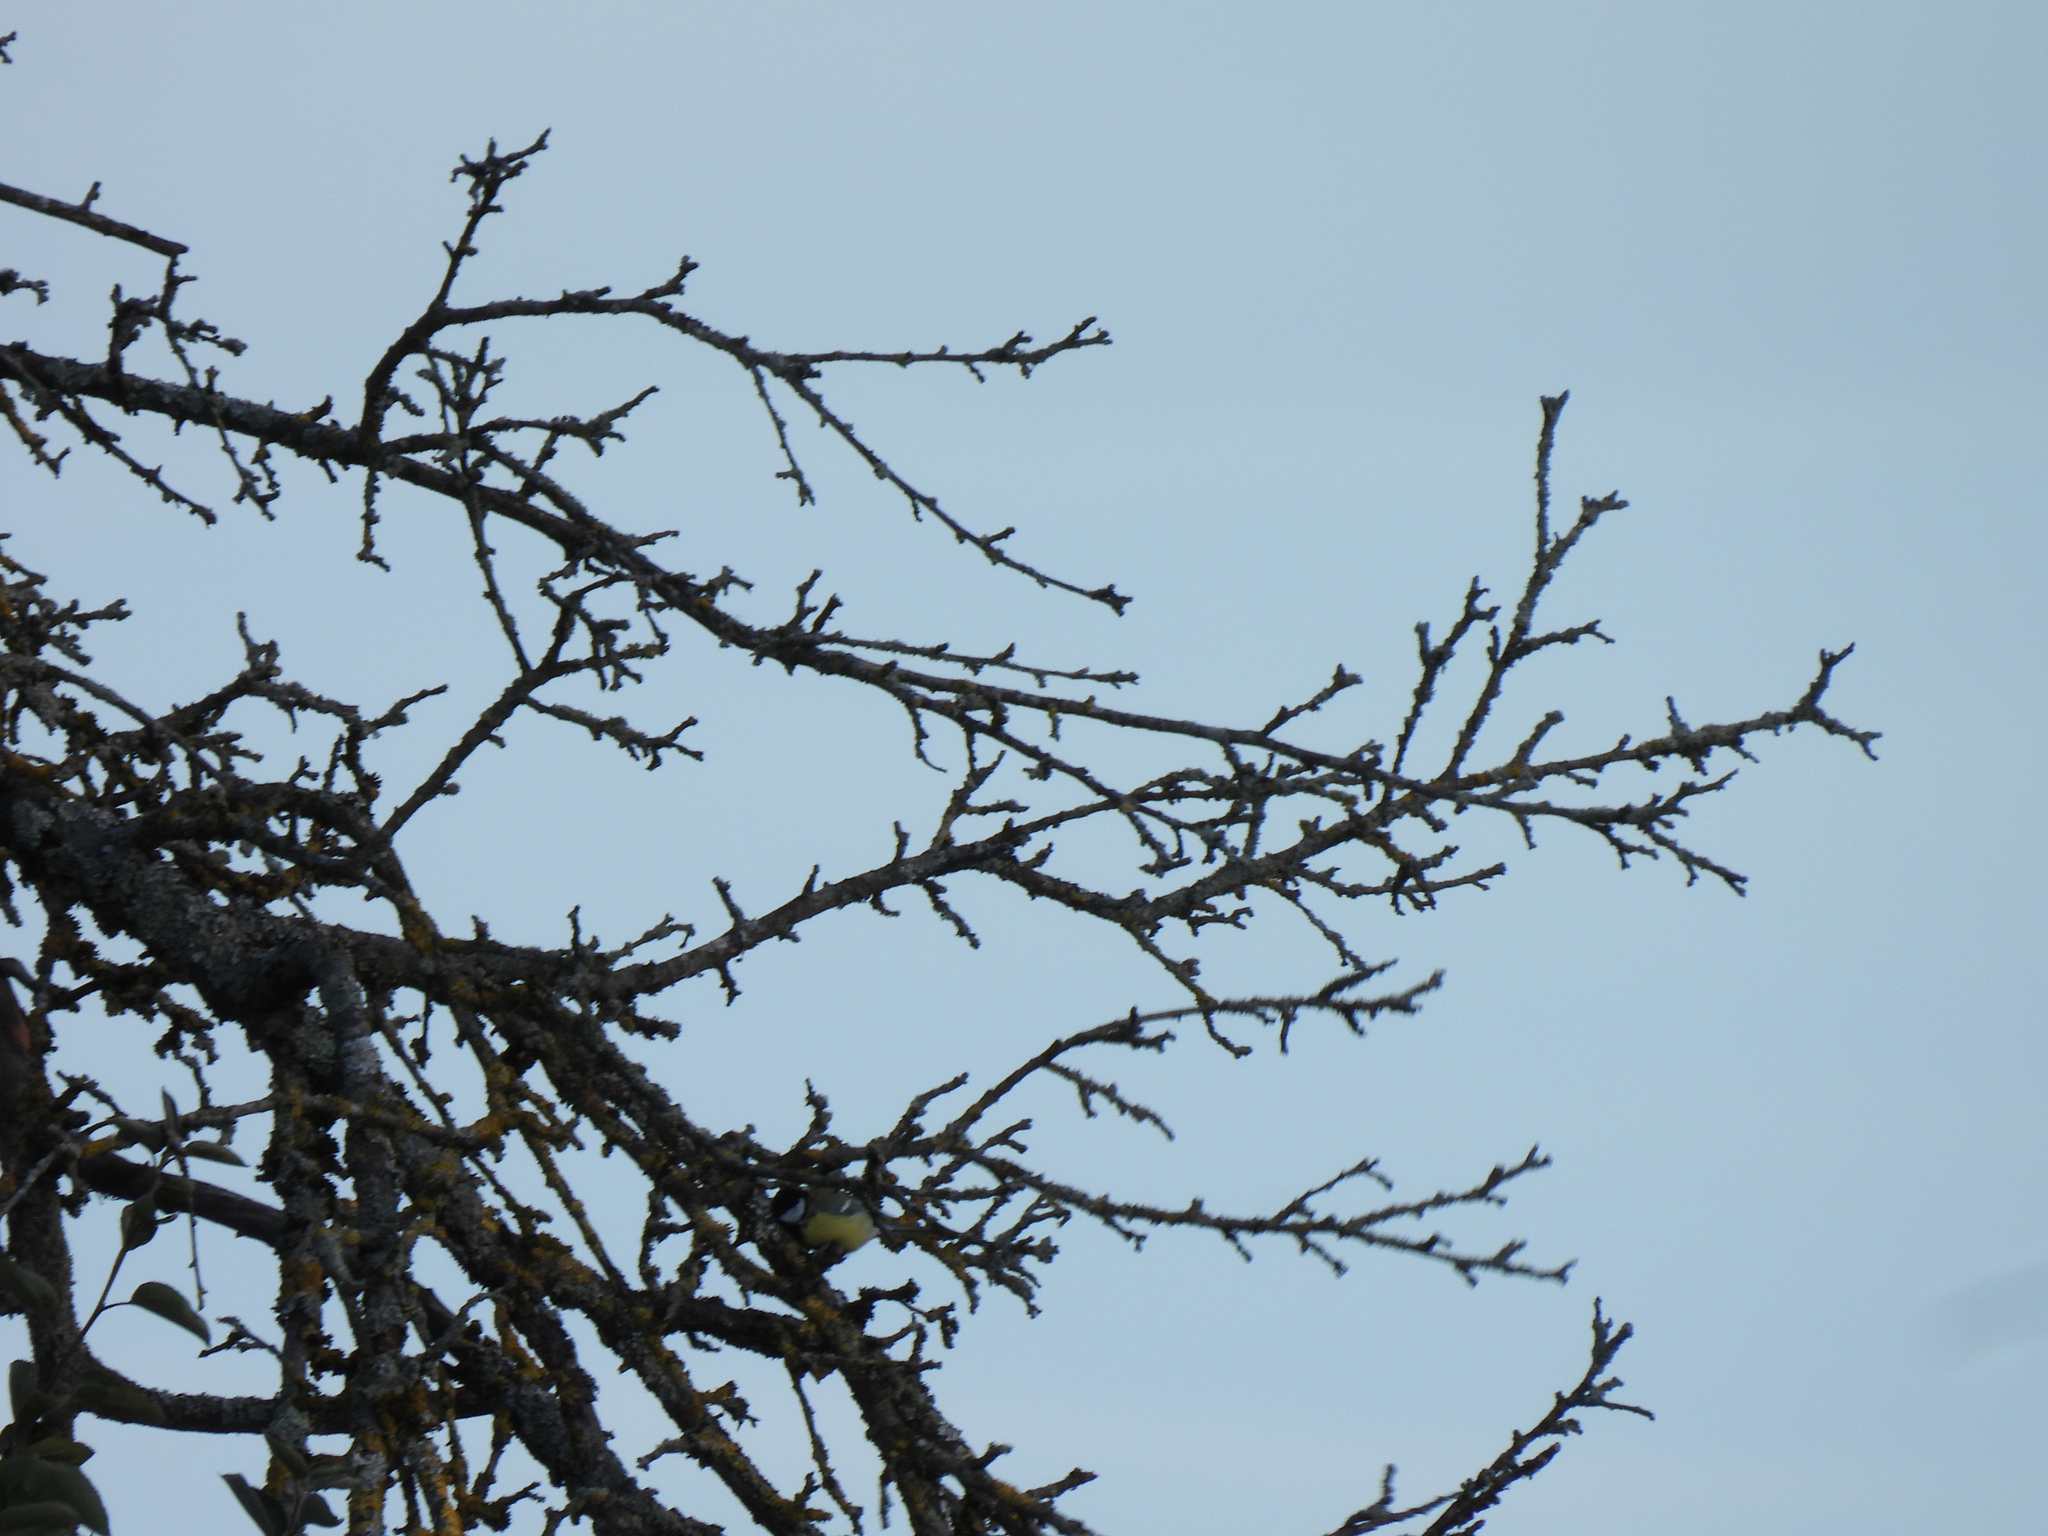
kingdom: Animalia
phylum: Chordata
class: Aves
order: Passeriformes
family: Paridae
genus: Parus
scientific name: Parus major
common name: Great tit
